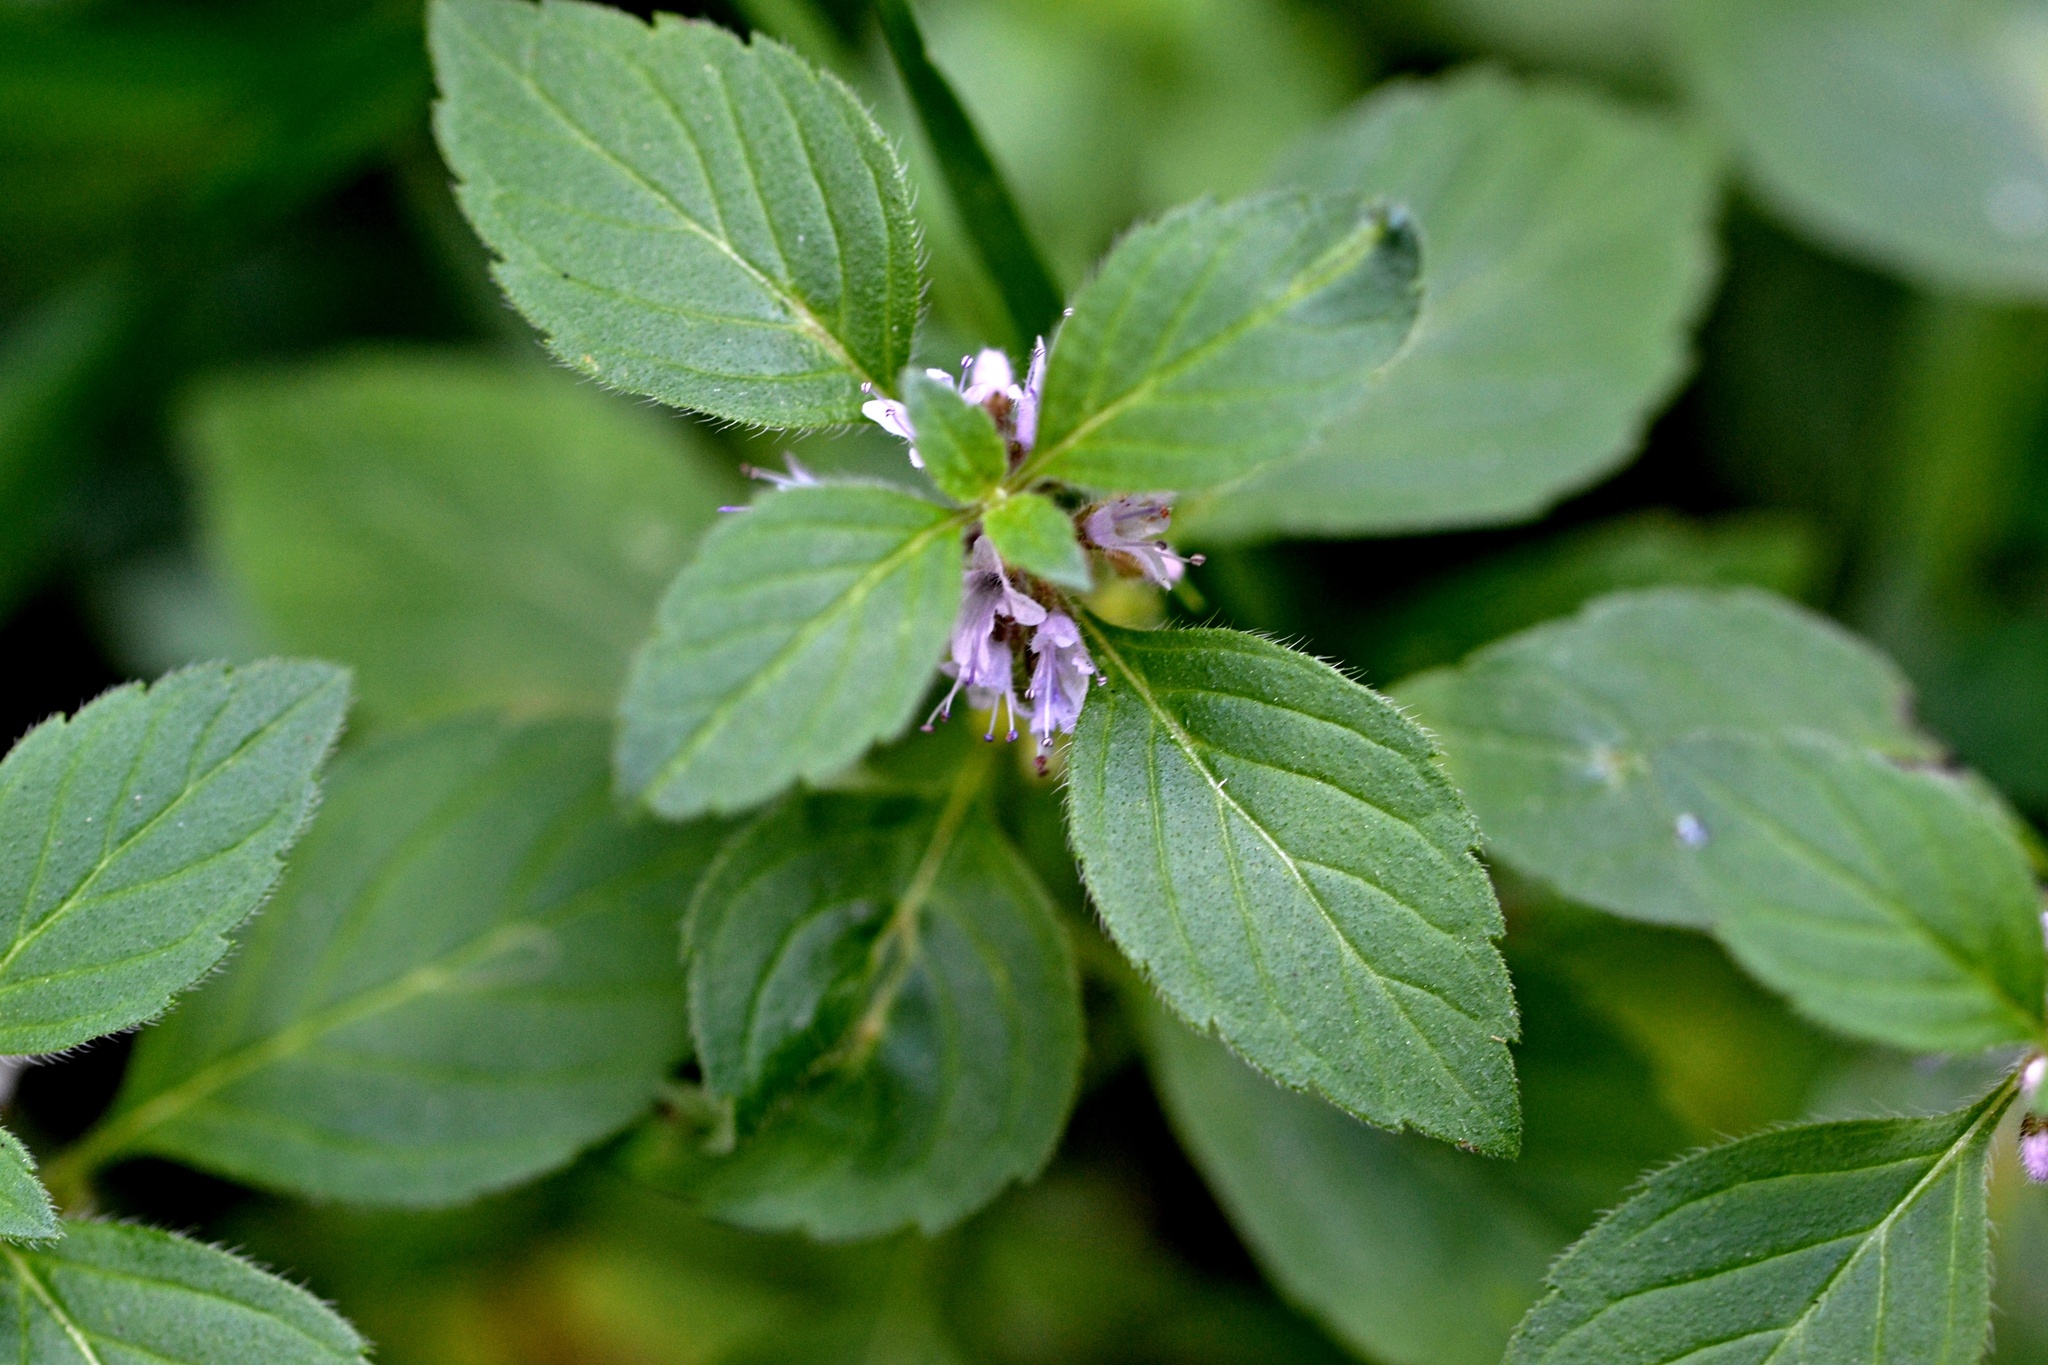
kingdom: Plantae
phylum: Tracheophyta
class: Magnoliopsida
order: Lamiales
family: Lamiaceae
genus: Mentha
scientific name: Mentha arvensis
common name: Corn mint
